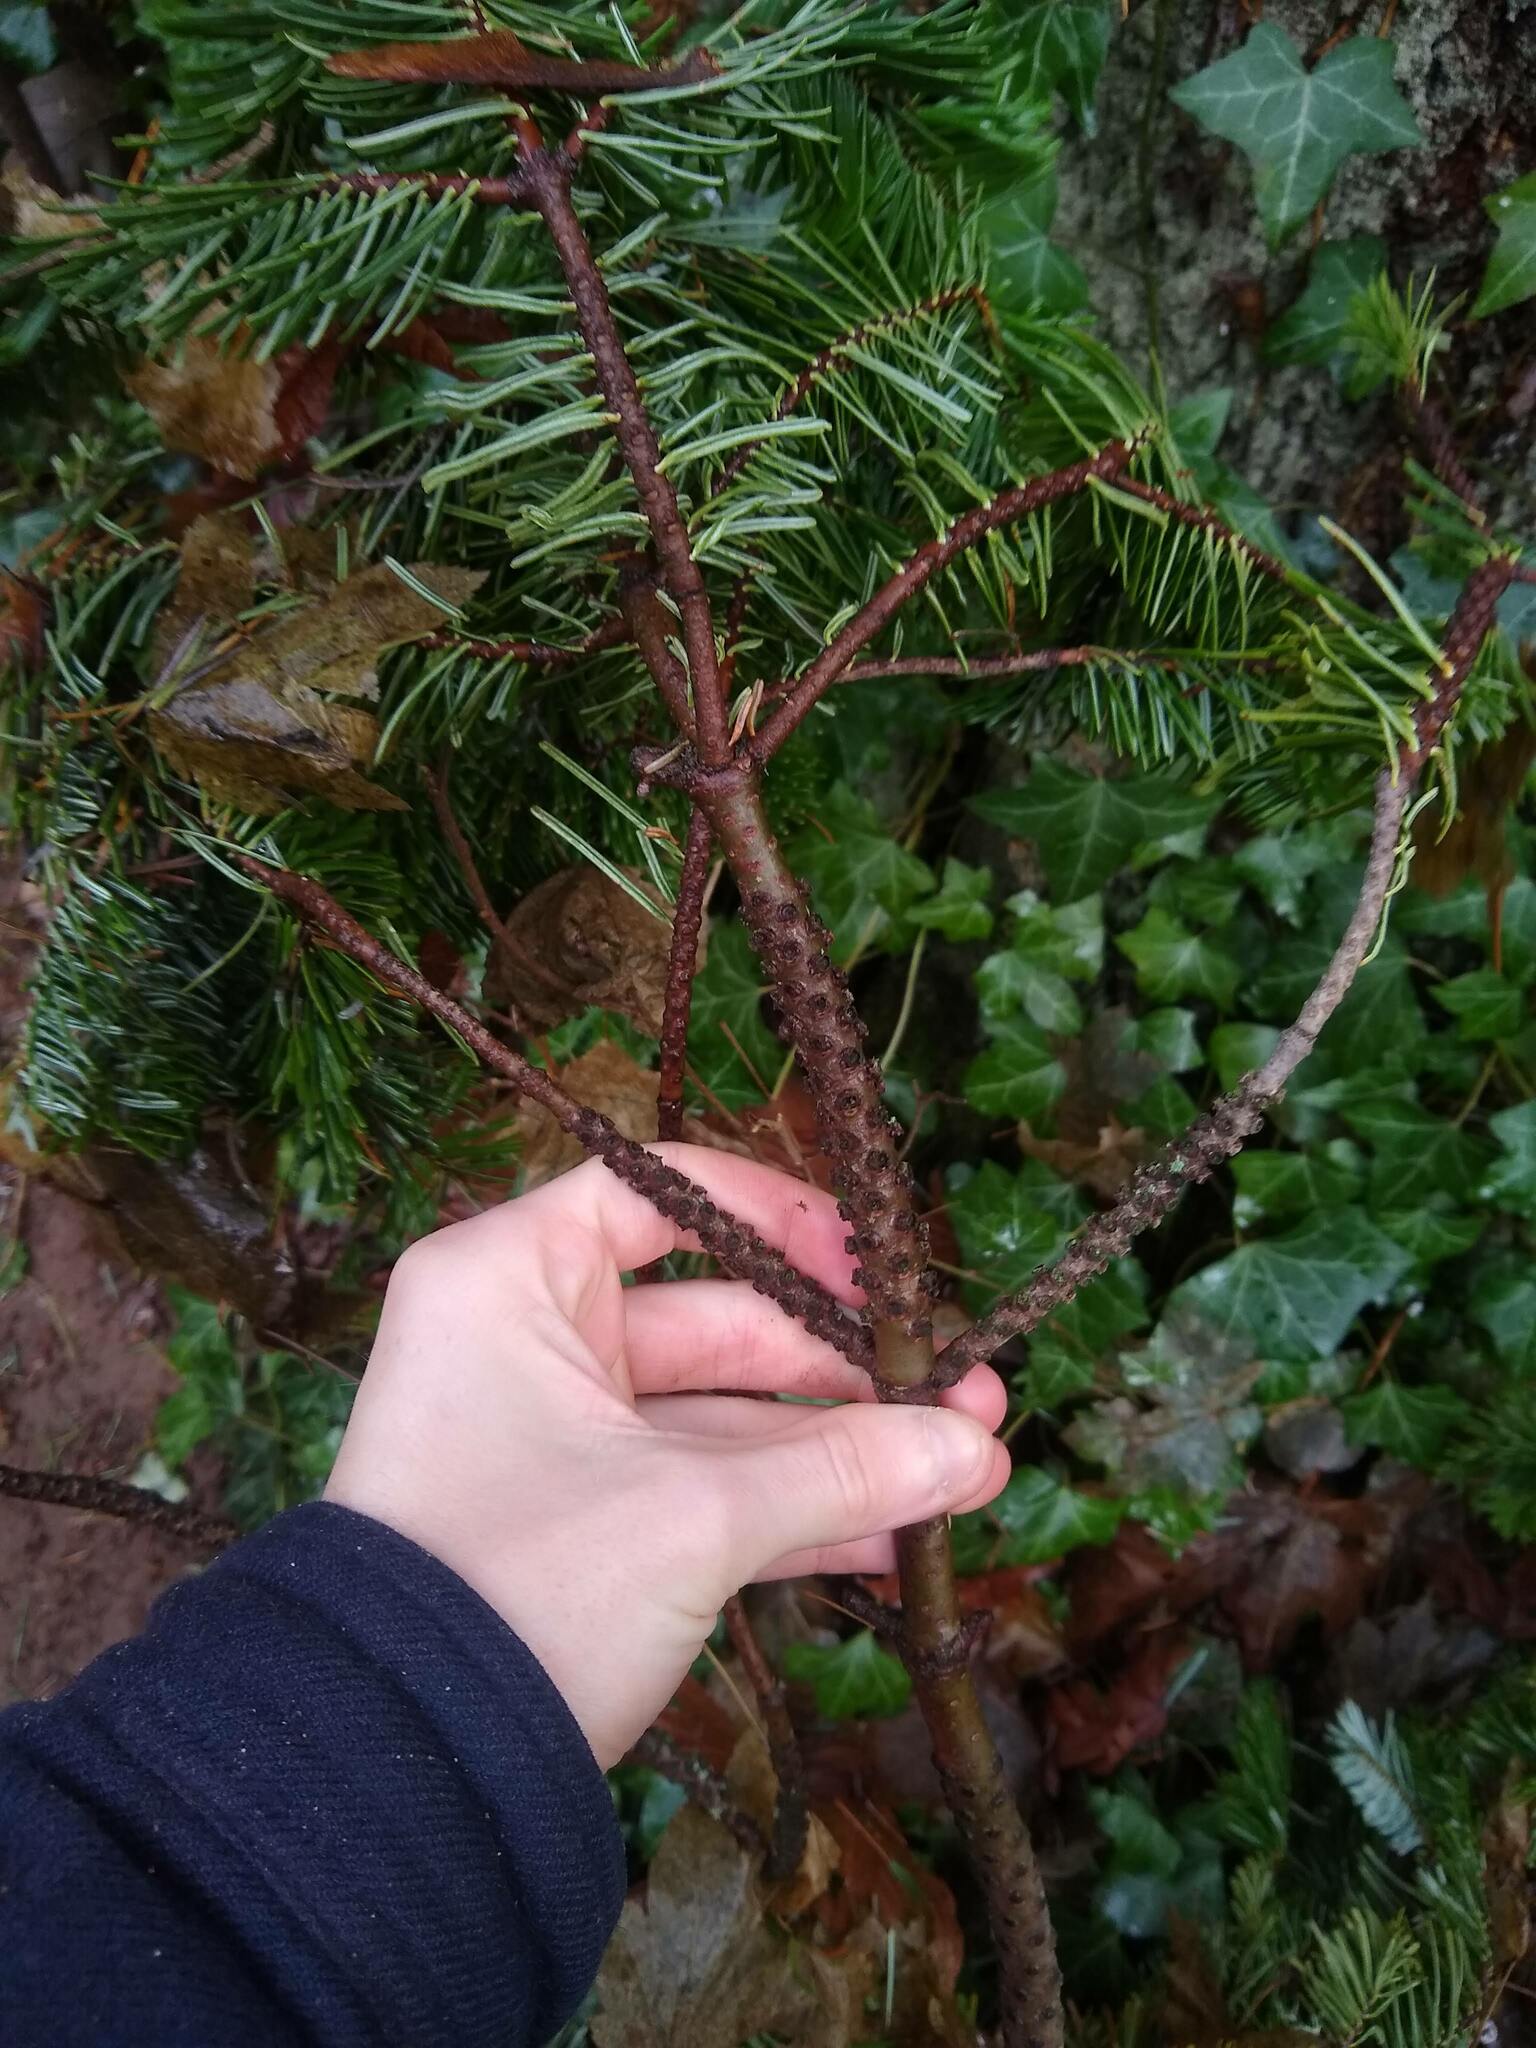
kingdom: Plantae
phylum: Tracheophyta
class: Pinopsida
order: Pinales
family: Pinaceae
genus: Abies
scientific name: Abies grandis
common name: Giant fir
